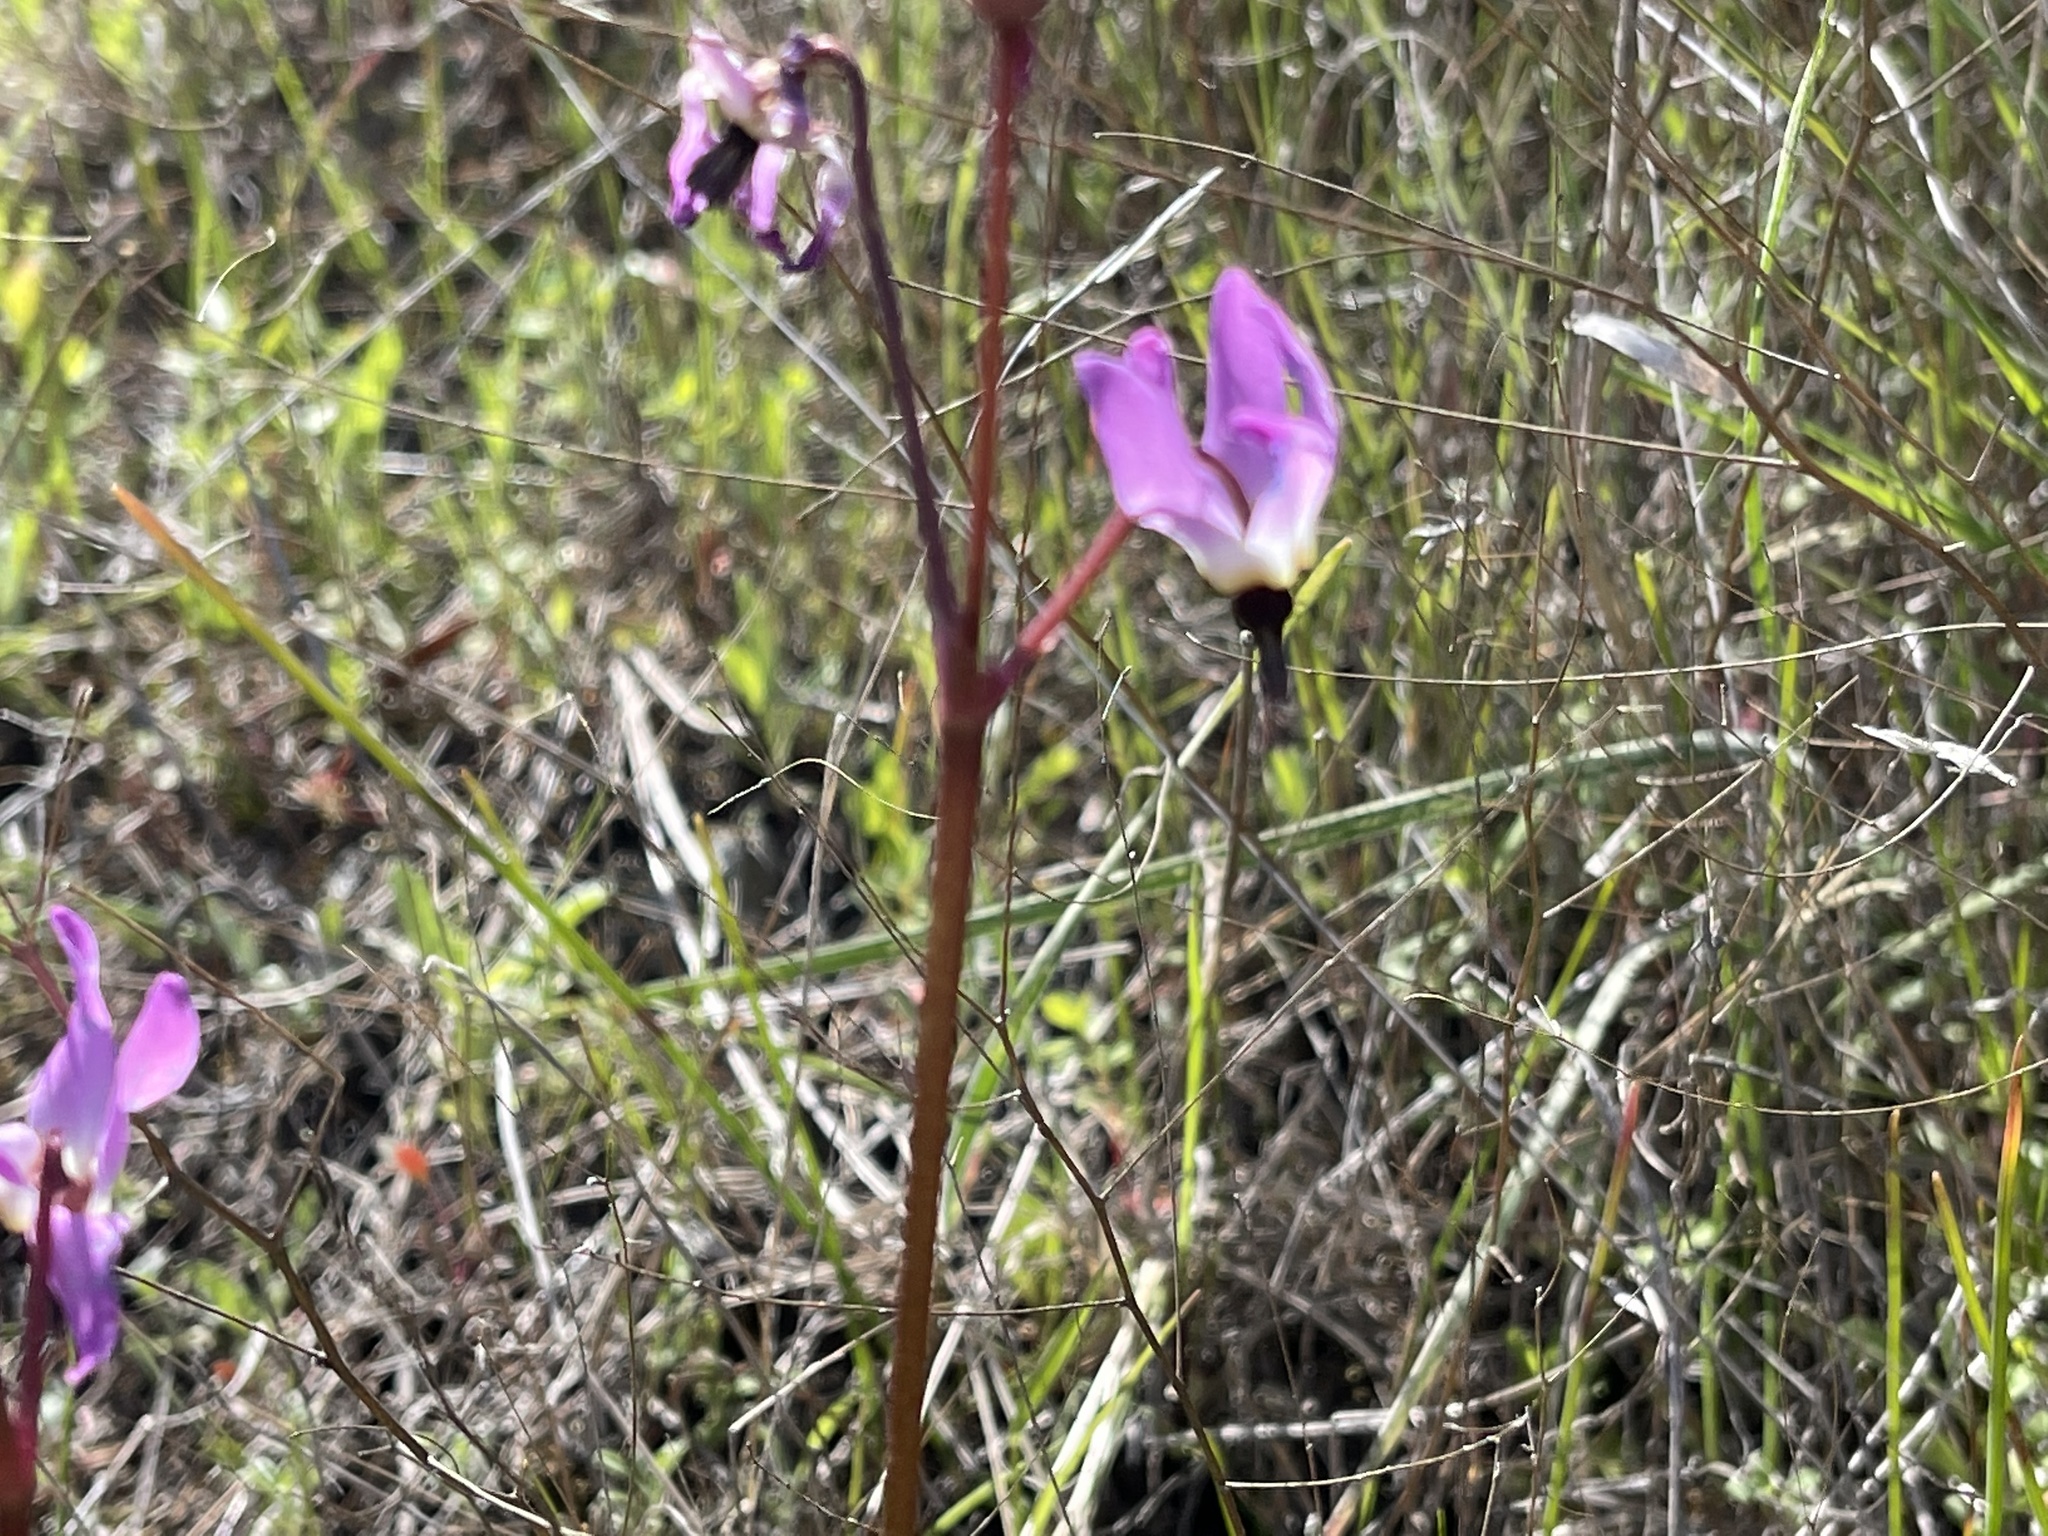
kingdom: Plantae
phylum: Tracheophyta
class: Magnoliopsida
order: Ericales
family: Primulaceae
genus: Dodecatheon
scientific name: Dodecatheon hendersonii
